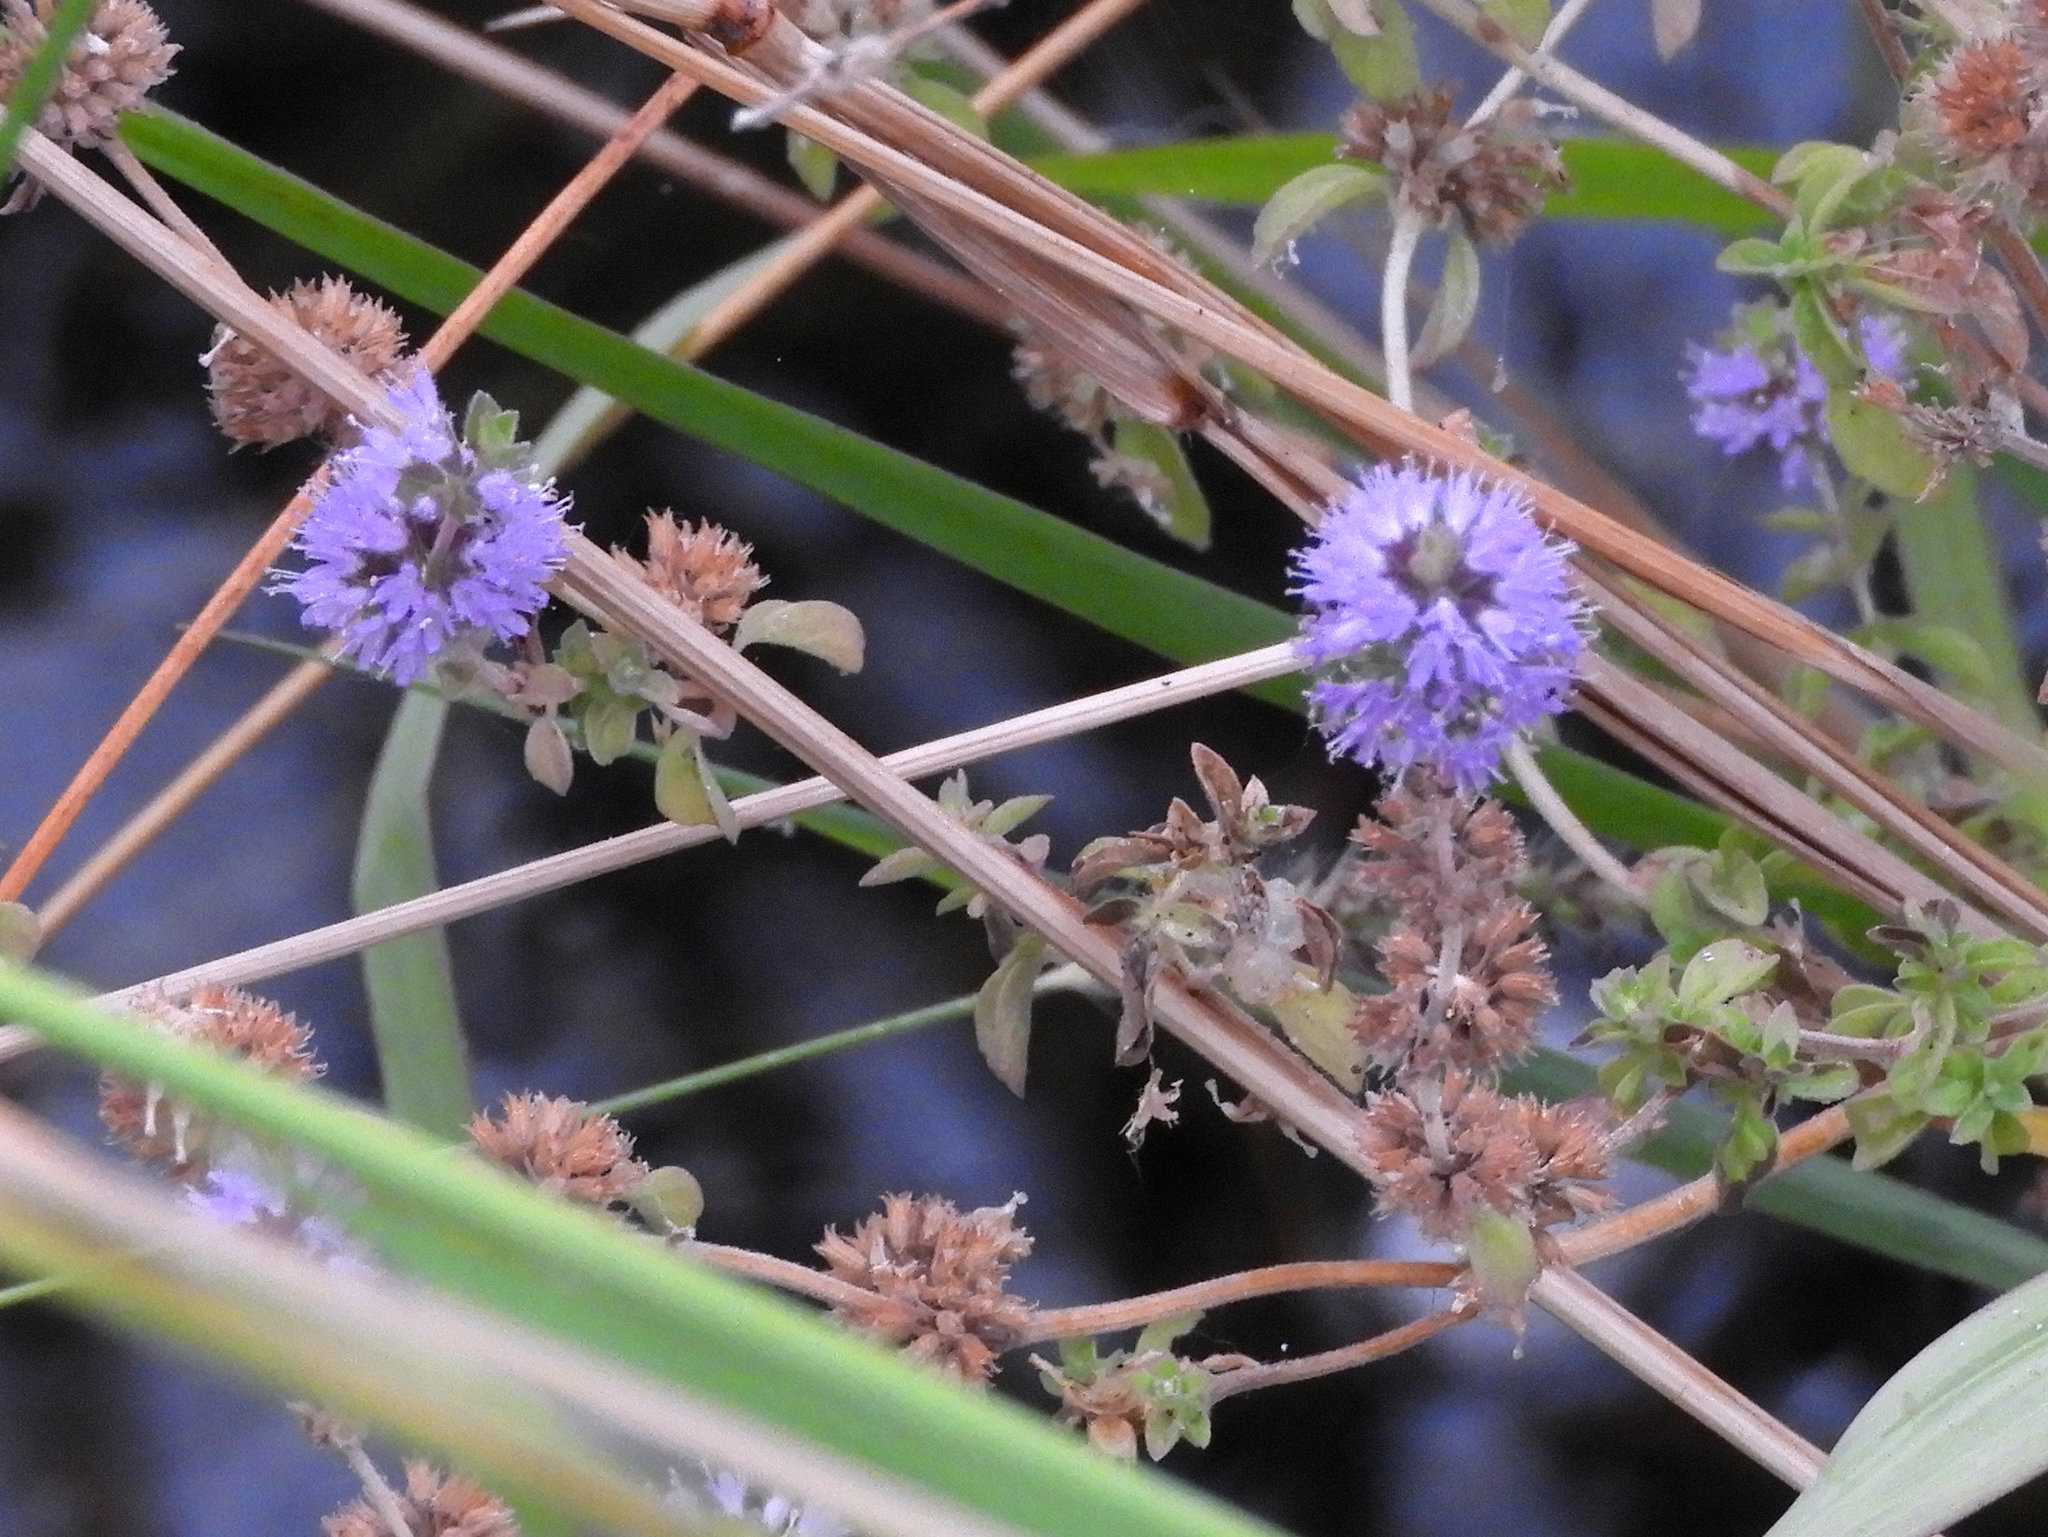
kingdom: Plantae
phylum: Tracheophyta
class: Magnoliopsida
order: Lamiales
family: Lamiaceae
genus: Mentha
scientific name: Mentha pulegium
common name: Pennyroyal
